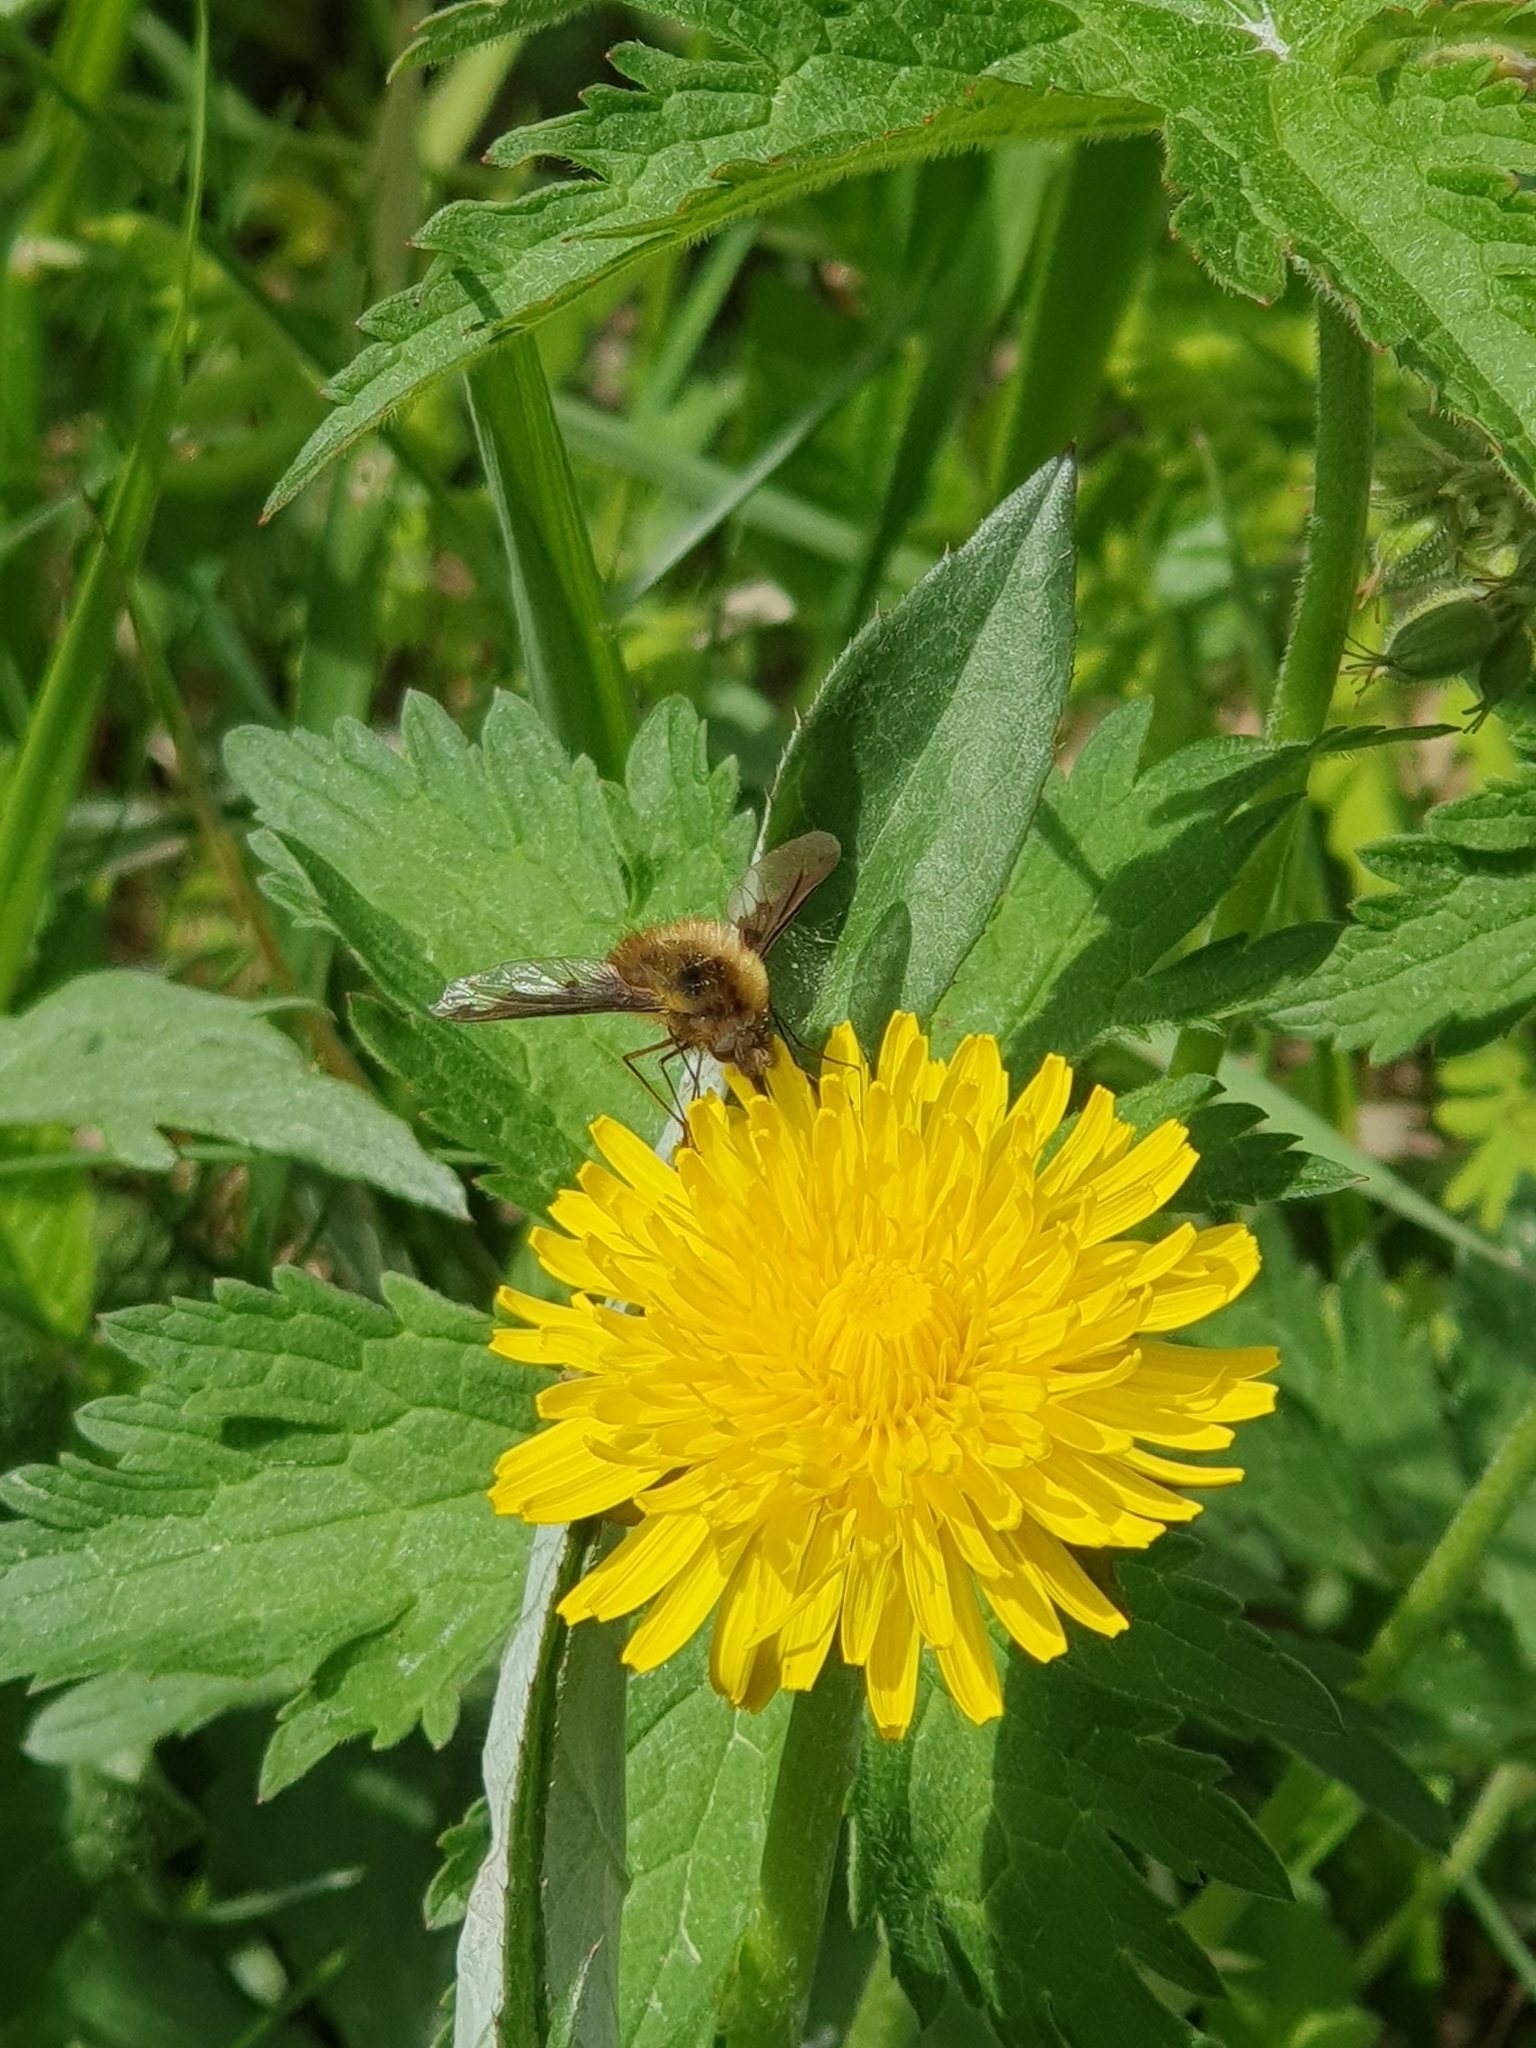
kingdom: Animalia
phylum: Arthropoda
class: Insecta
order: Diptera
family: Bombyliidae
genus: Bombylius
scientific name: Bombylius major
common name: Bee fly
